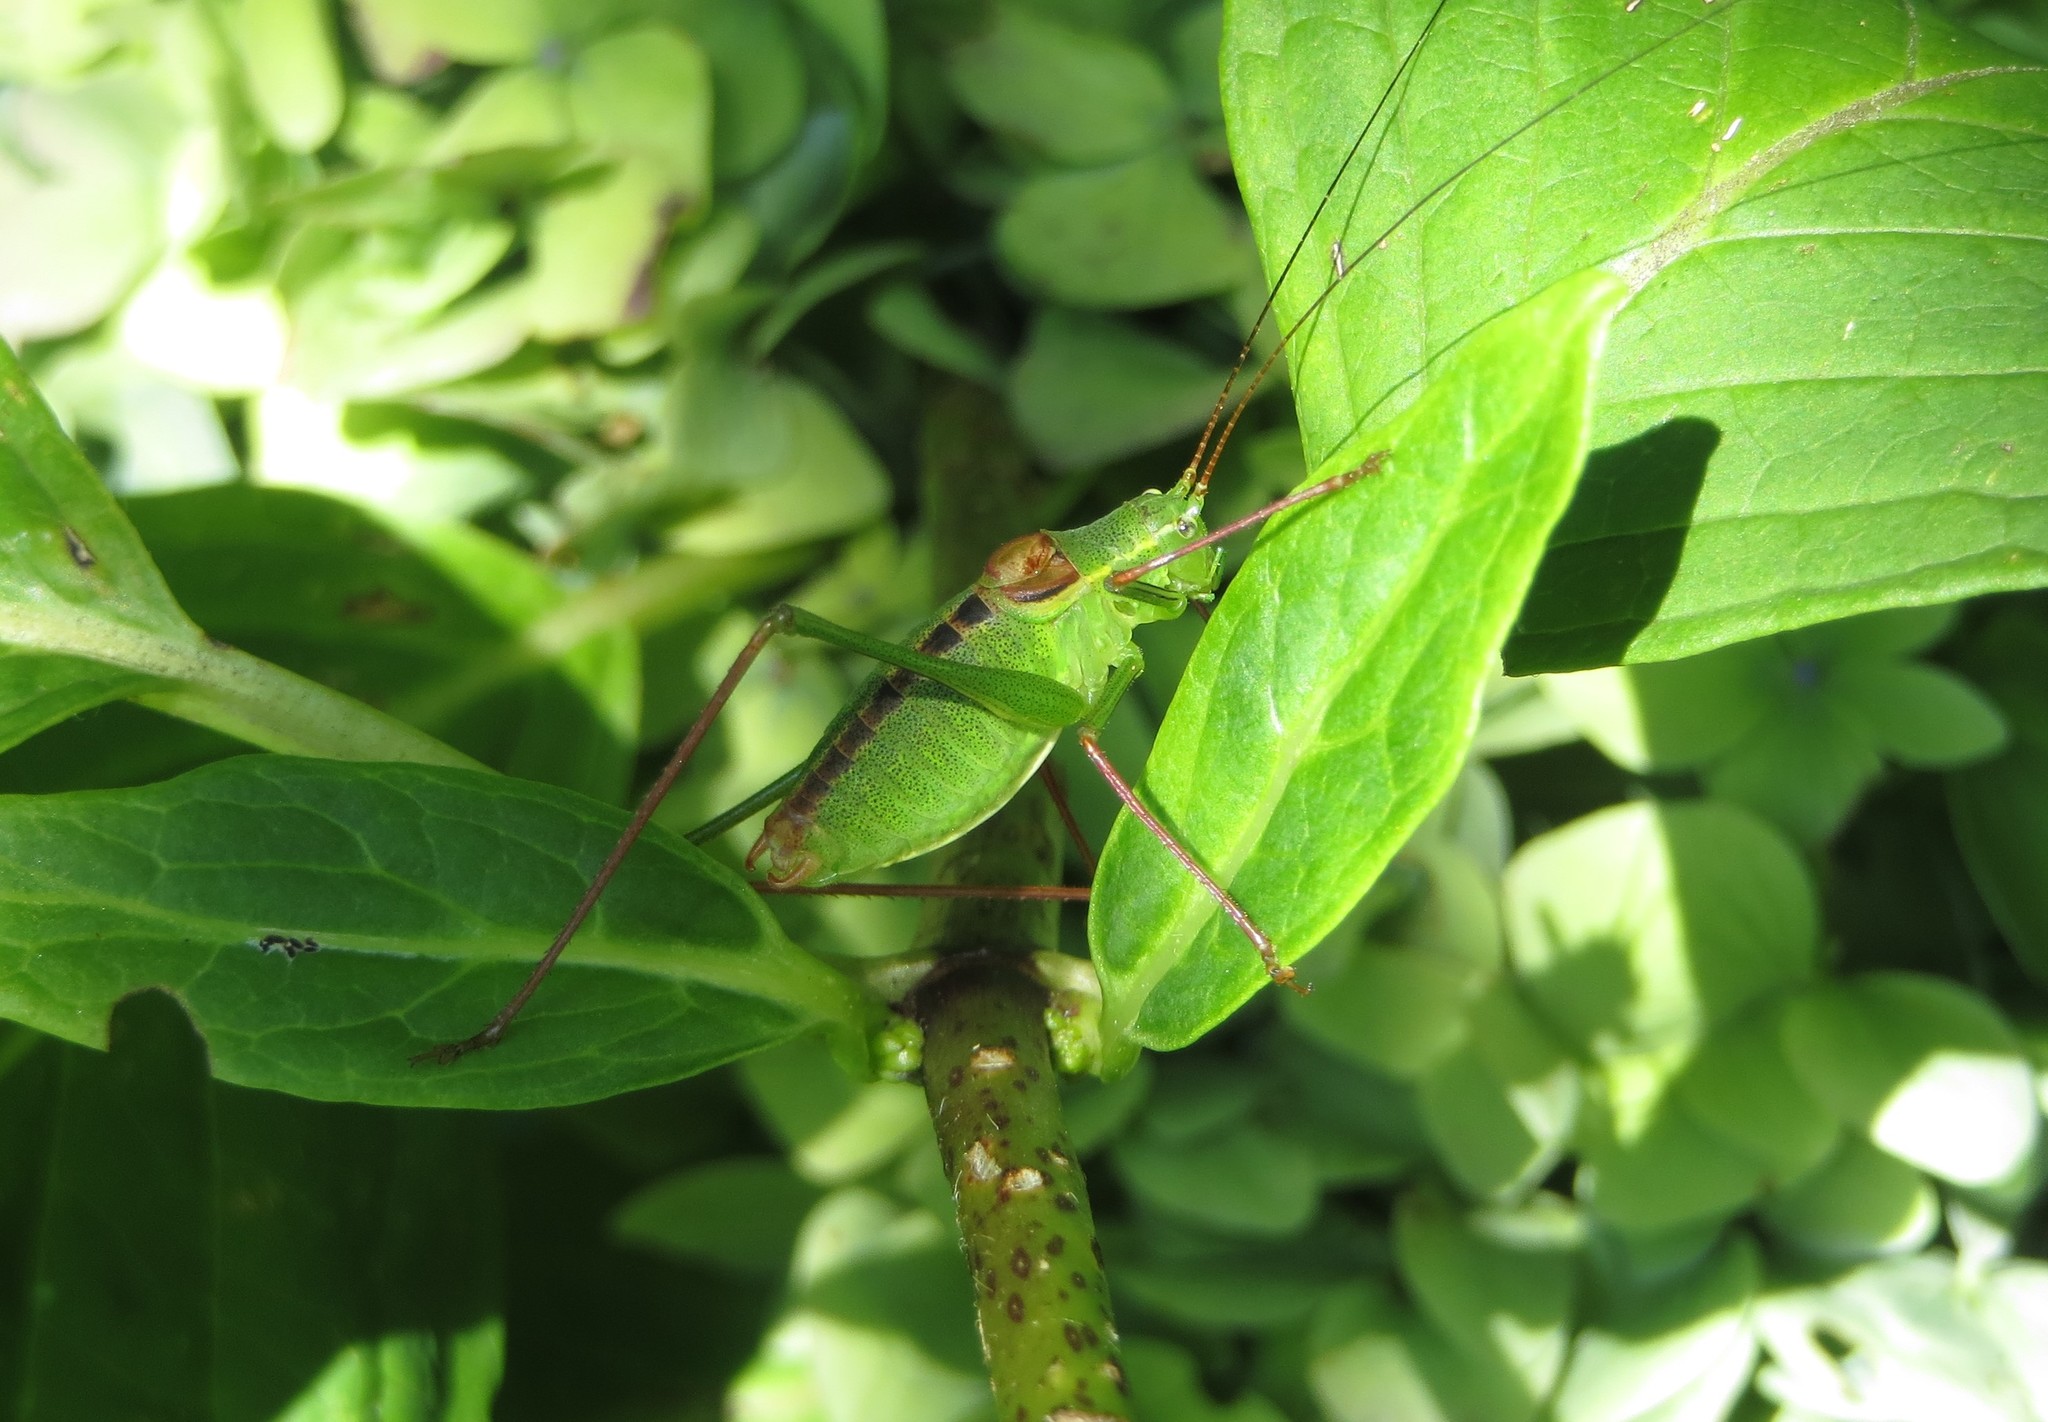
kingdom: Animalia
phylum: Arthropoda
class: Insecta
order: Orthoptera
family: Tettigoniidae
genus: Leptophyes
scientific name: Leptophyes laticauda
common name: Long-tailed speckled bush-cricket
